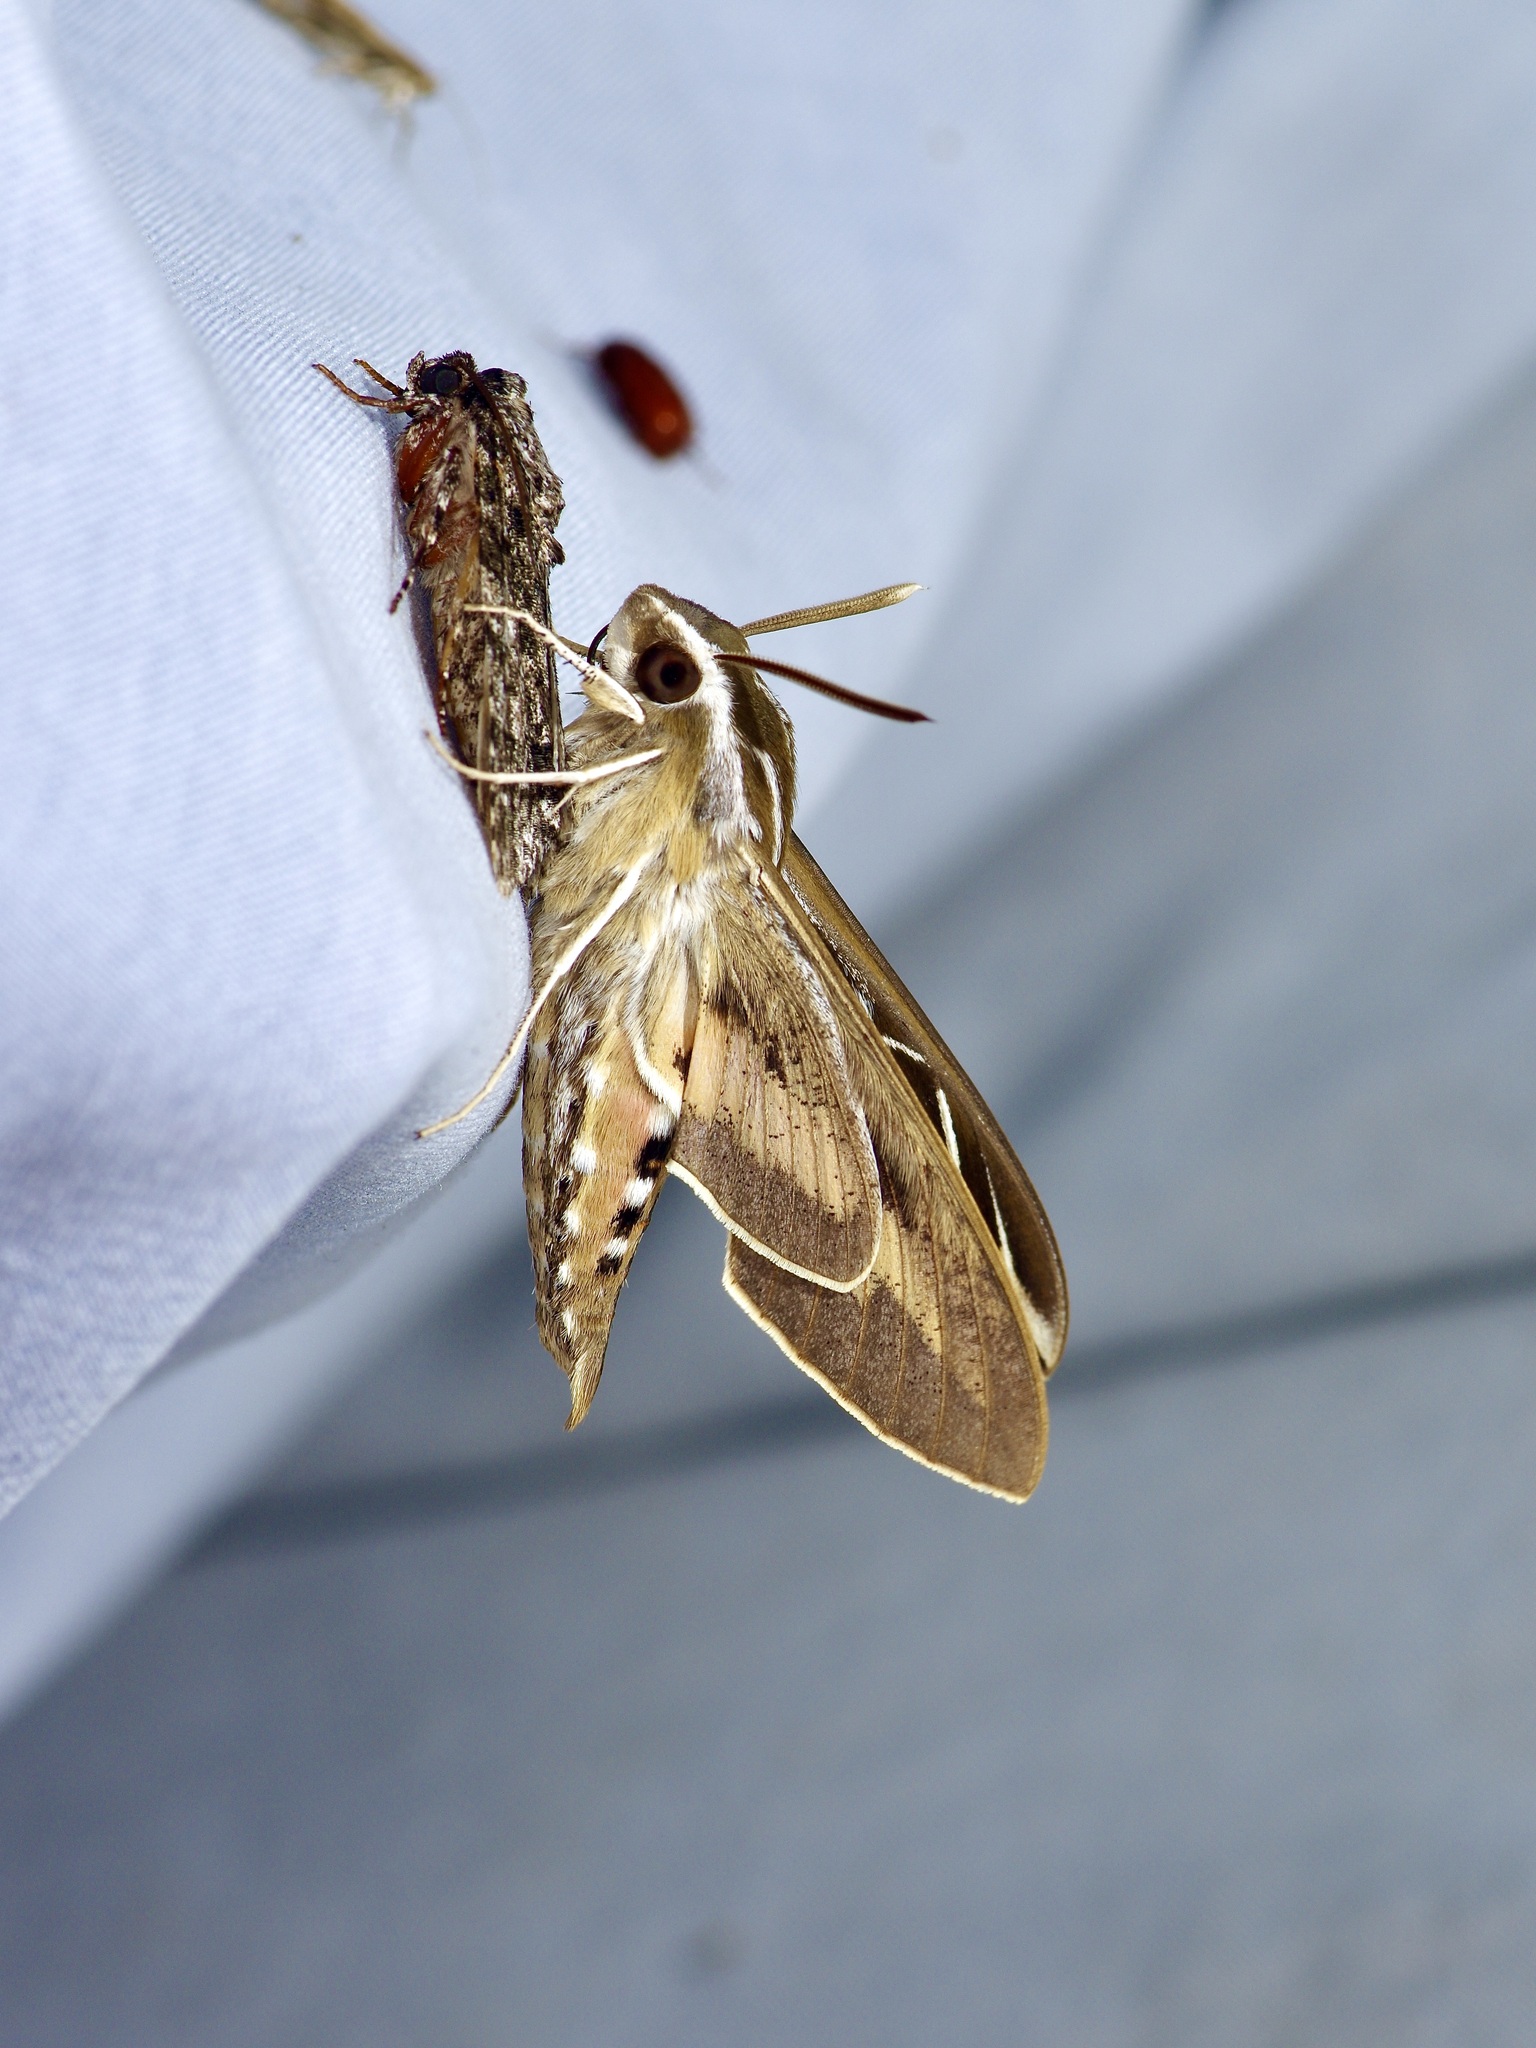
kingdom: Animalia
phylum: Arthropoda
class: Insecta
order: Lepidoptera
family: Sphingidae
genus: Hyles
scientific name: Hyles lineata
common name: White-lined sphinx
